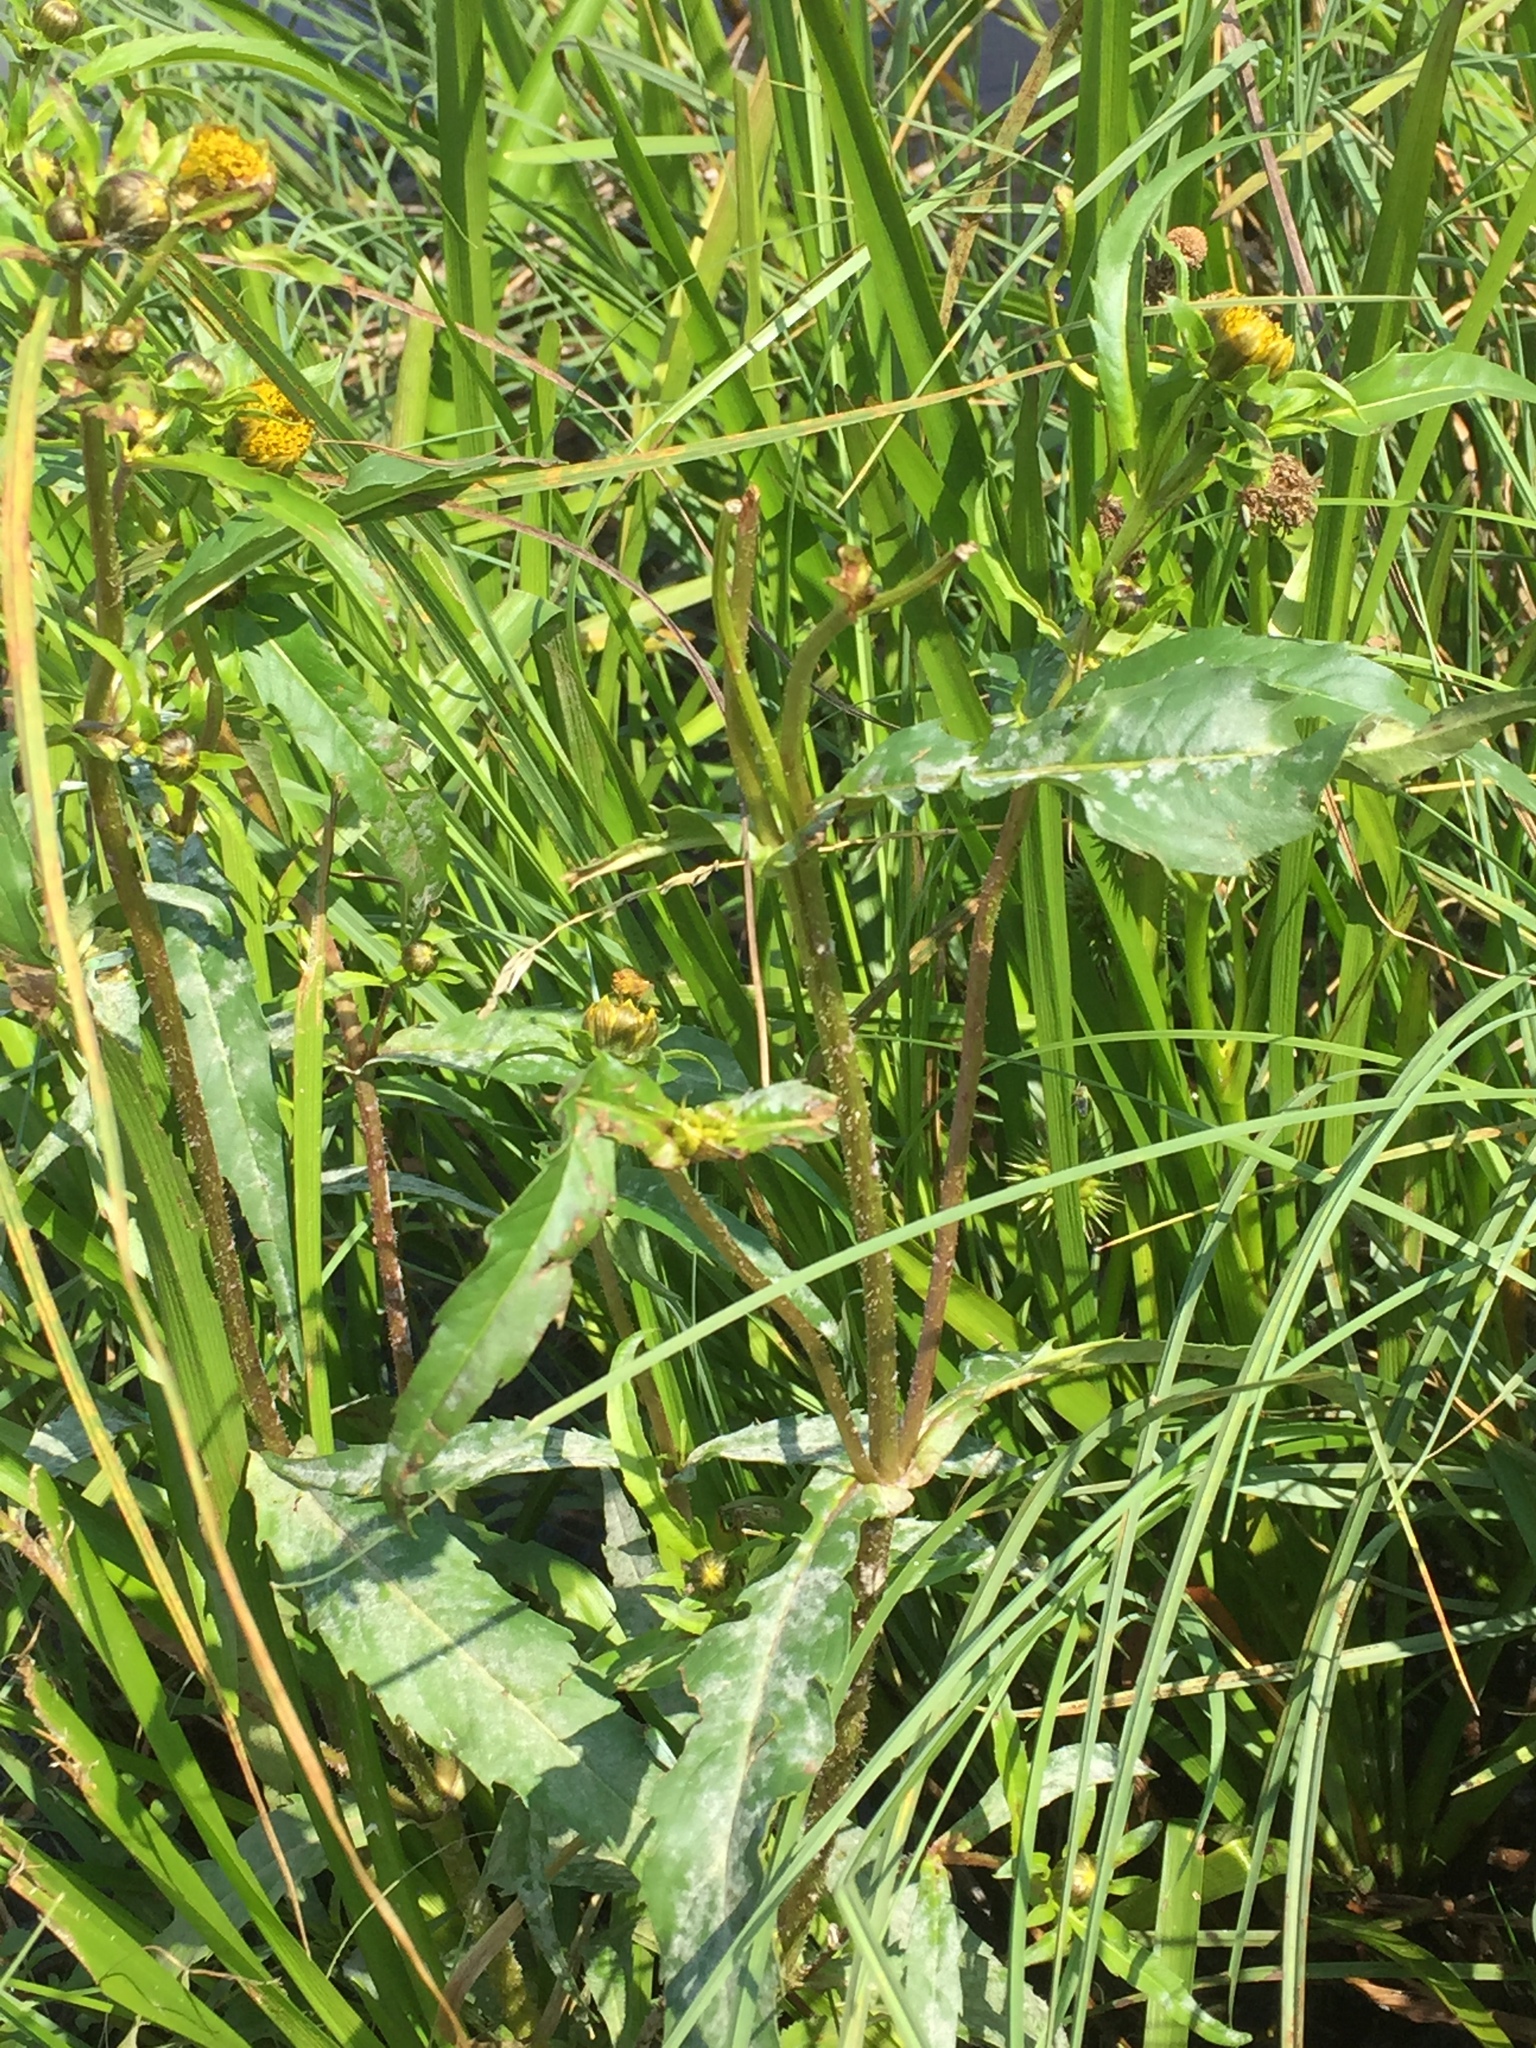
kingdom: Plantae
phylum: Tracheophyta
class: Magnoliopsida
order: Asterales
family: Asteraceae
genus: Bidens
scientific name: Bidens cernua
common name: Nodding bur-marigold
